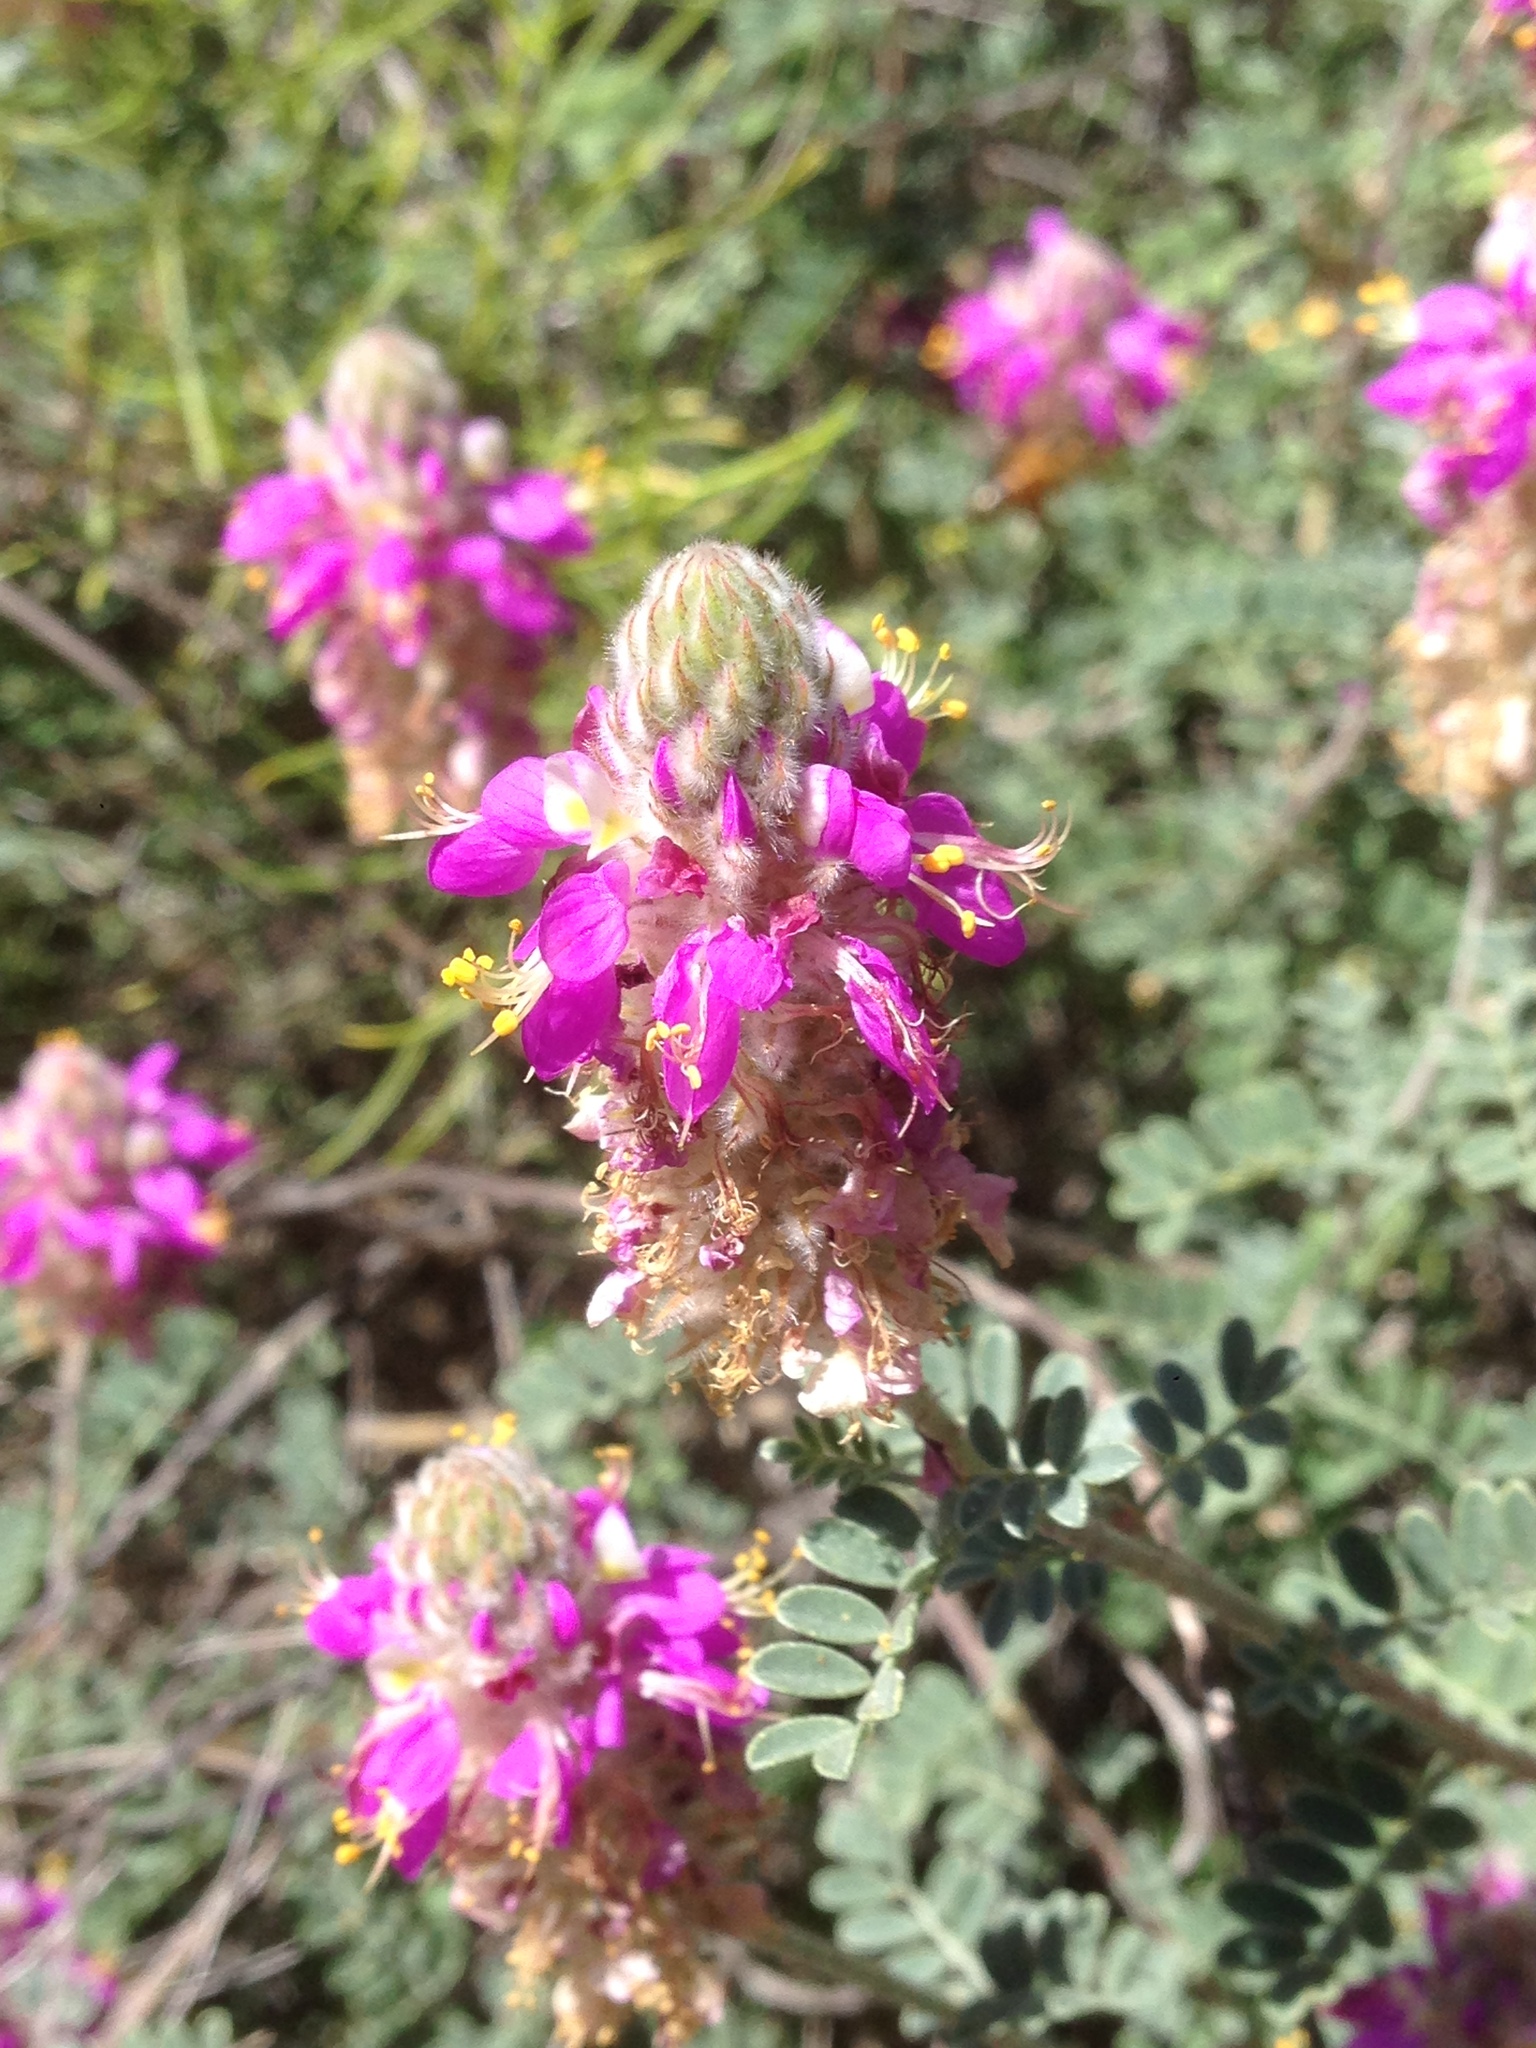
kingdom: Plantae
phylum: Tracheophyta
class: Magnoliopsida
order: Fabales
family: Fabaceae
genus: Dalea
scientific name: Dalea bicolor
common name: Silver prairie-clover
